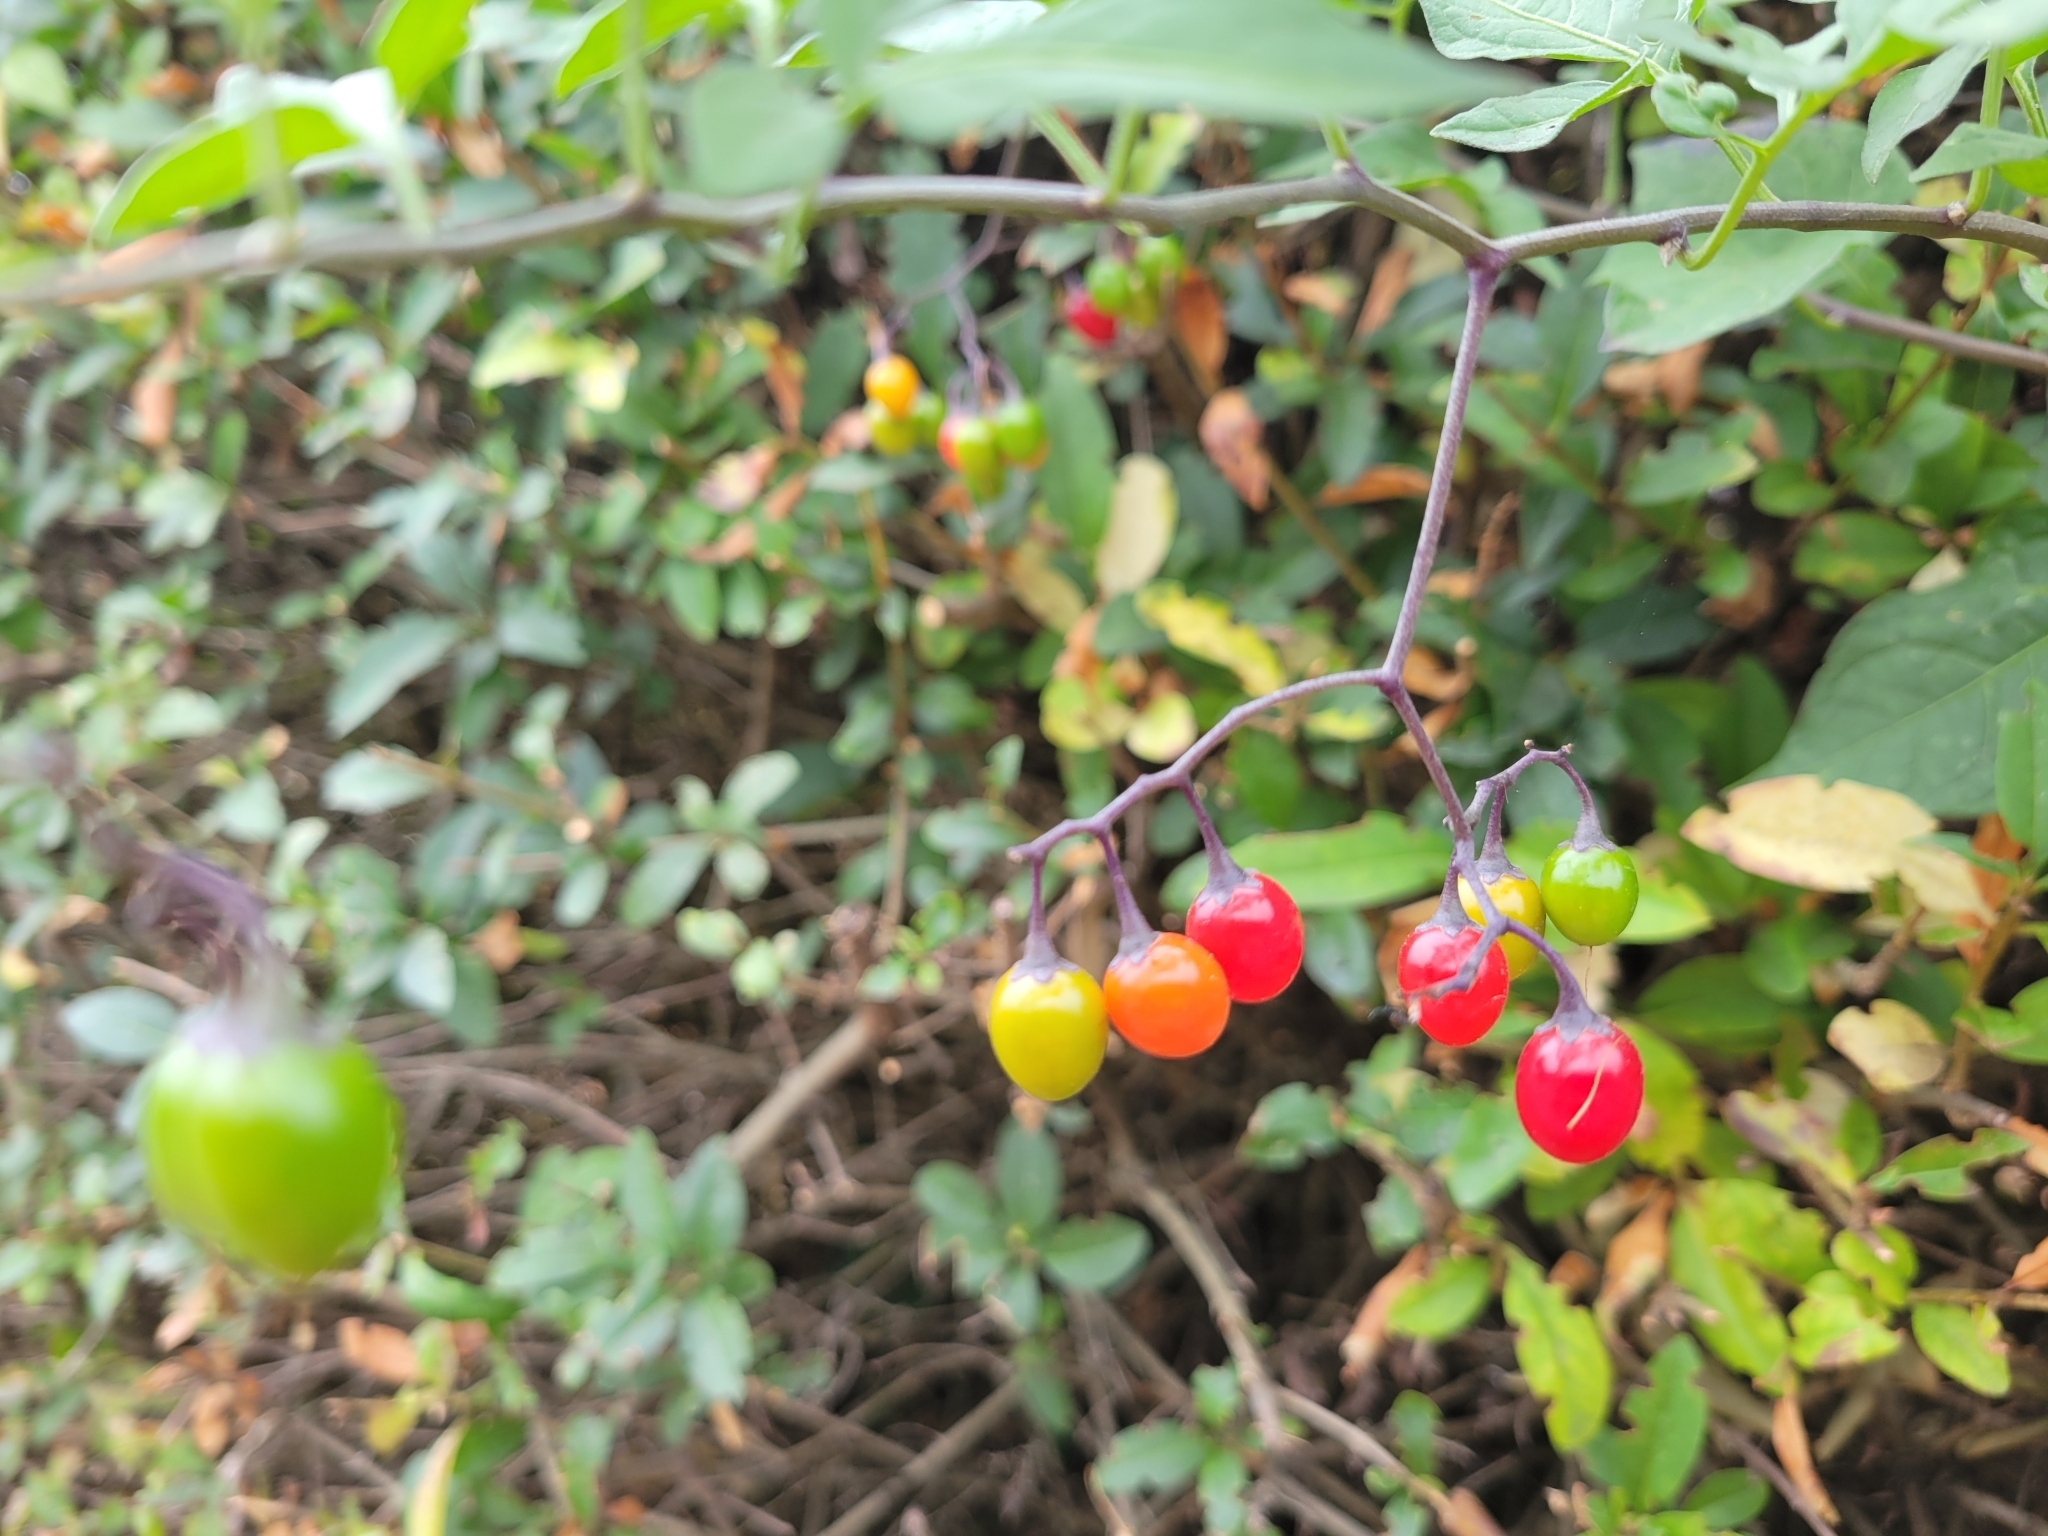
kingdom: Plantae
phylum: Tracheophyta
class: Magnoliopsida
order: Solanales
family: Solanaceae
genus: Solanum
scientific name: Solanum dulcamara
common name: Climbing nightshade
